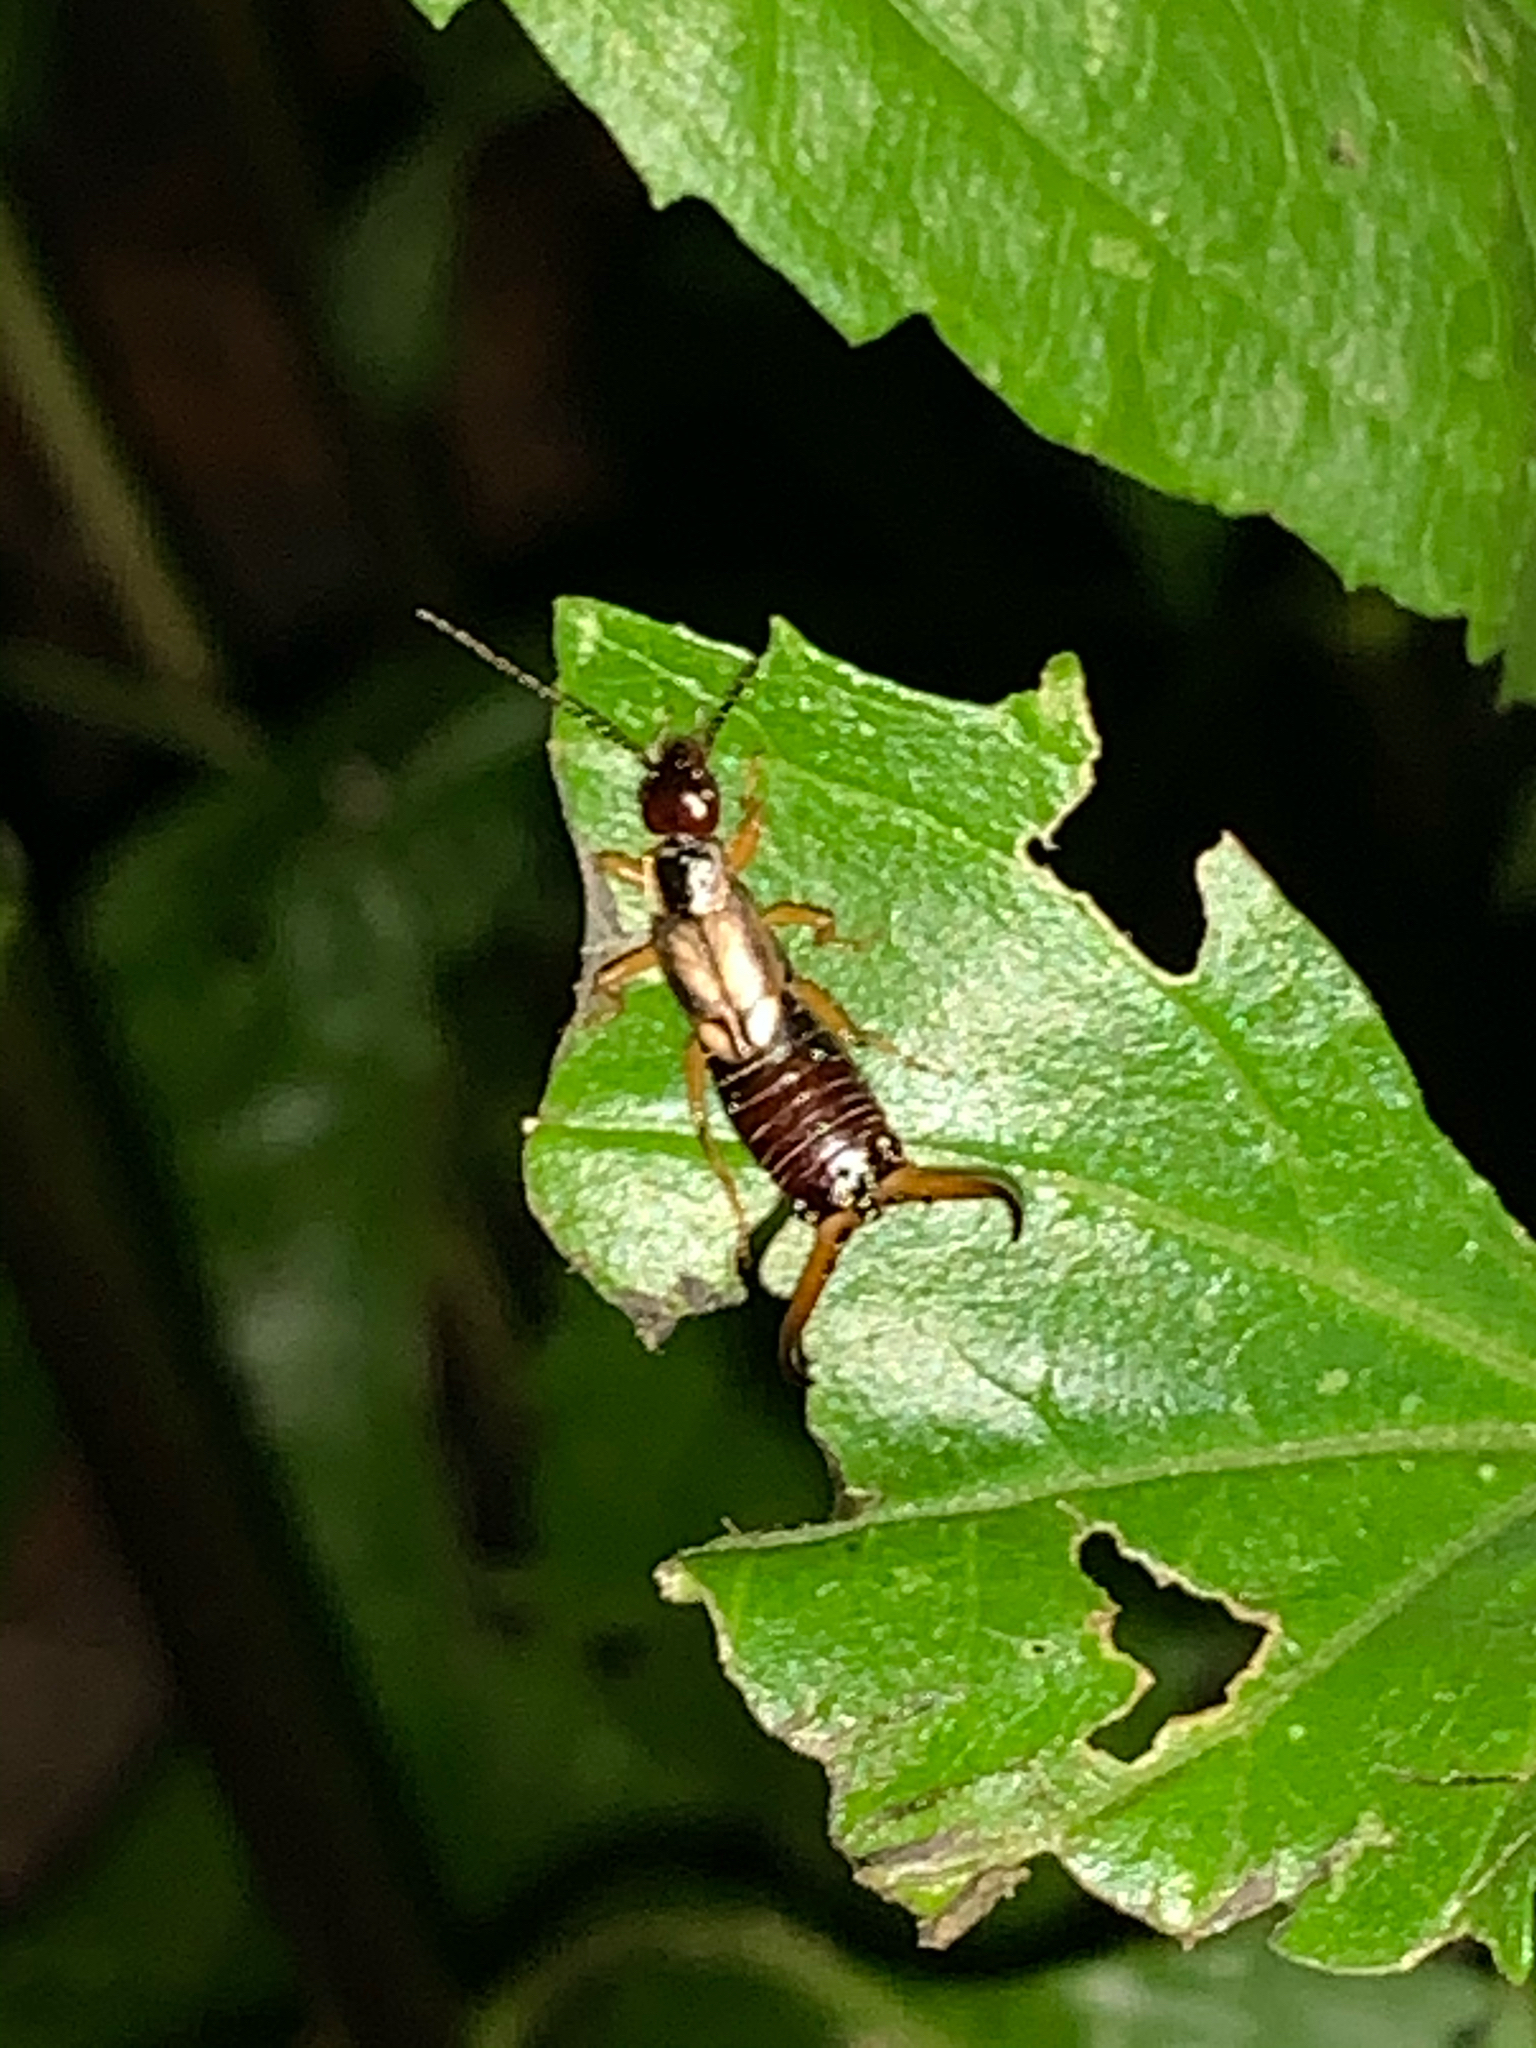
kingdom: Animalia
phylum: Arthropoda
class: Insecta
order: Dermaptera
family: Forficulidae
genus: Forficula
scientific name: Forficula
